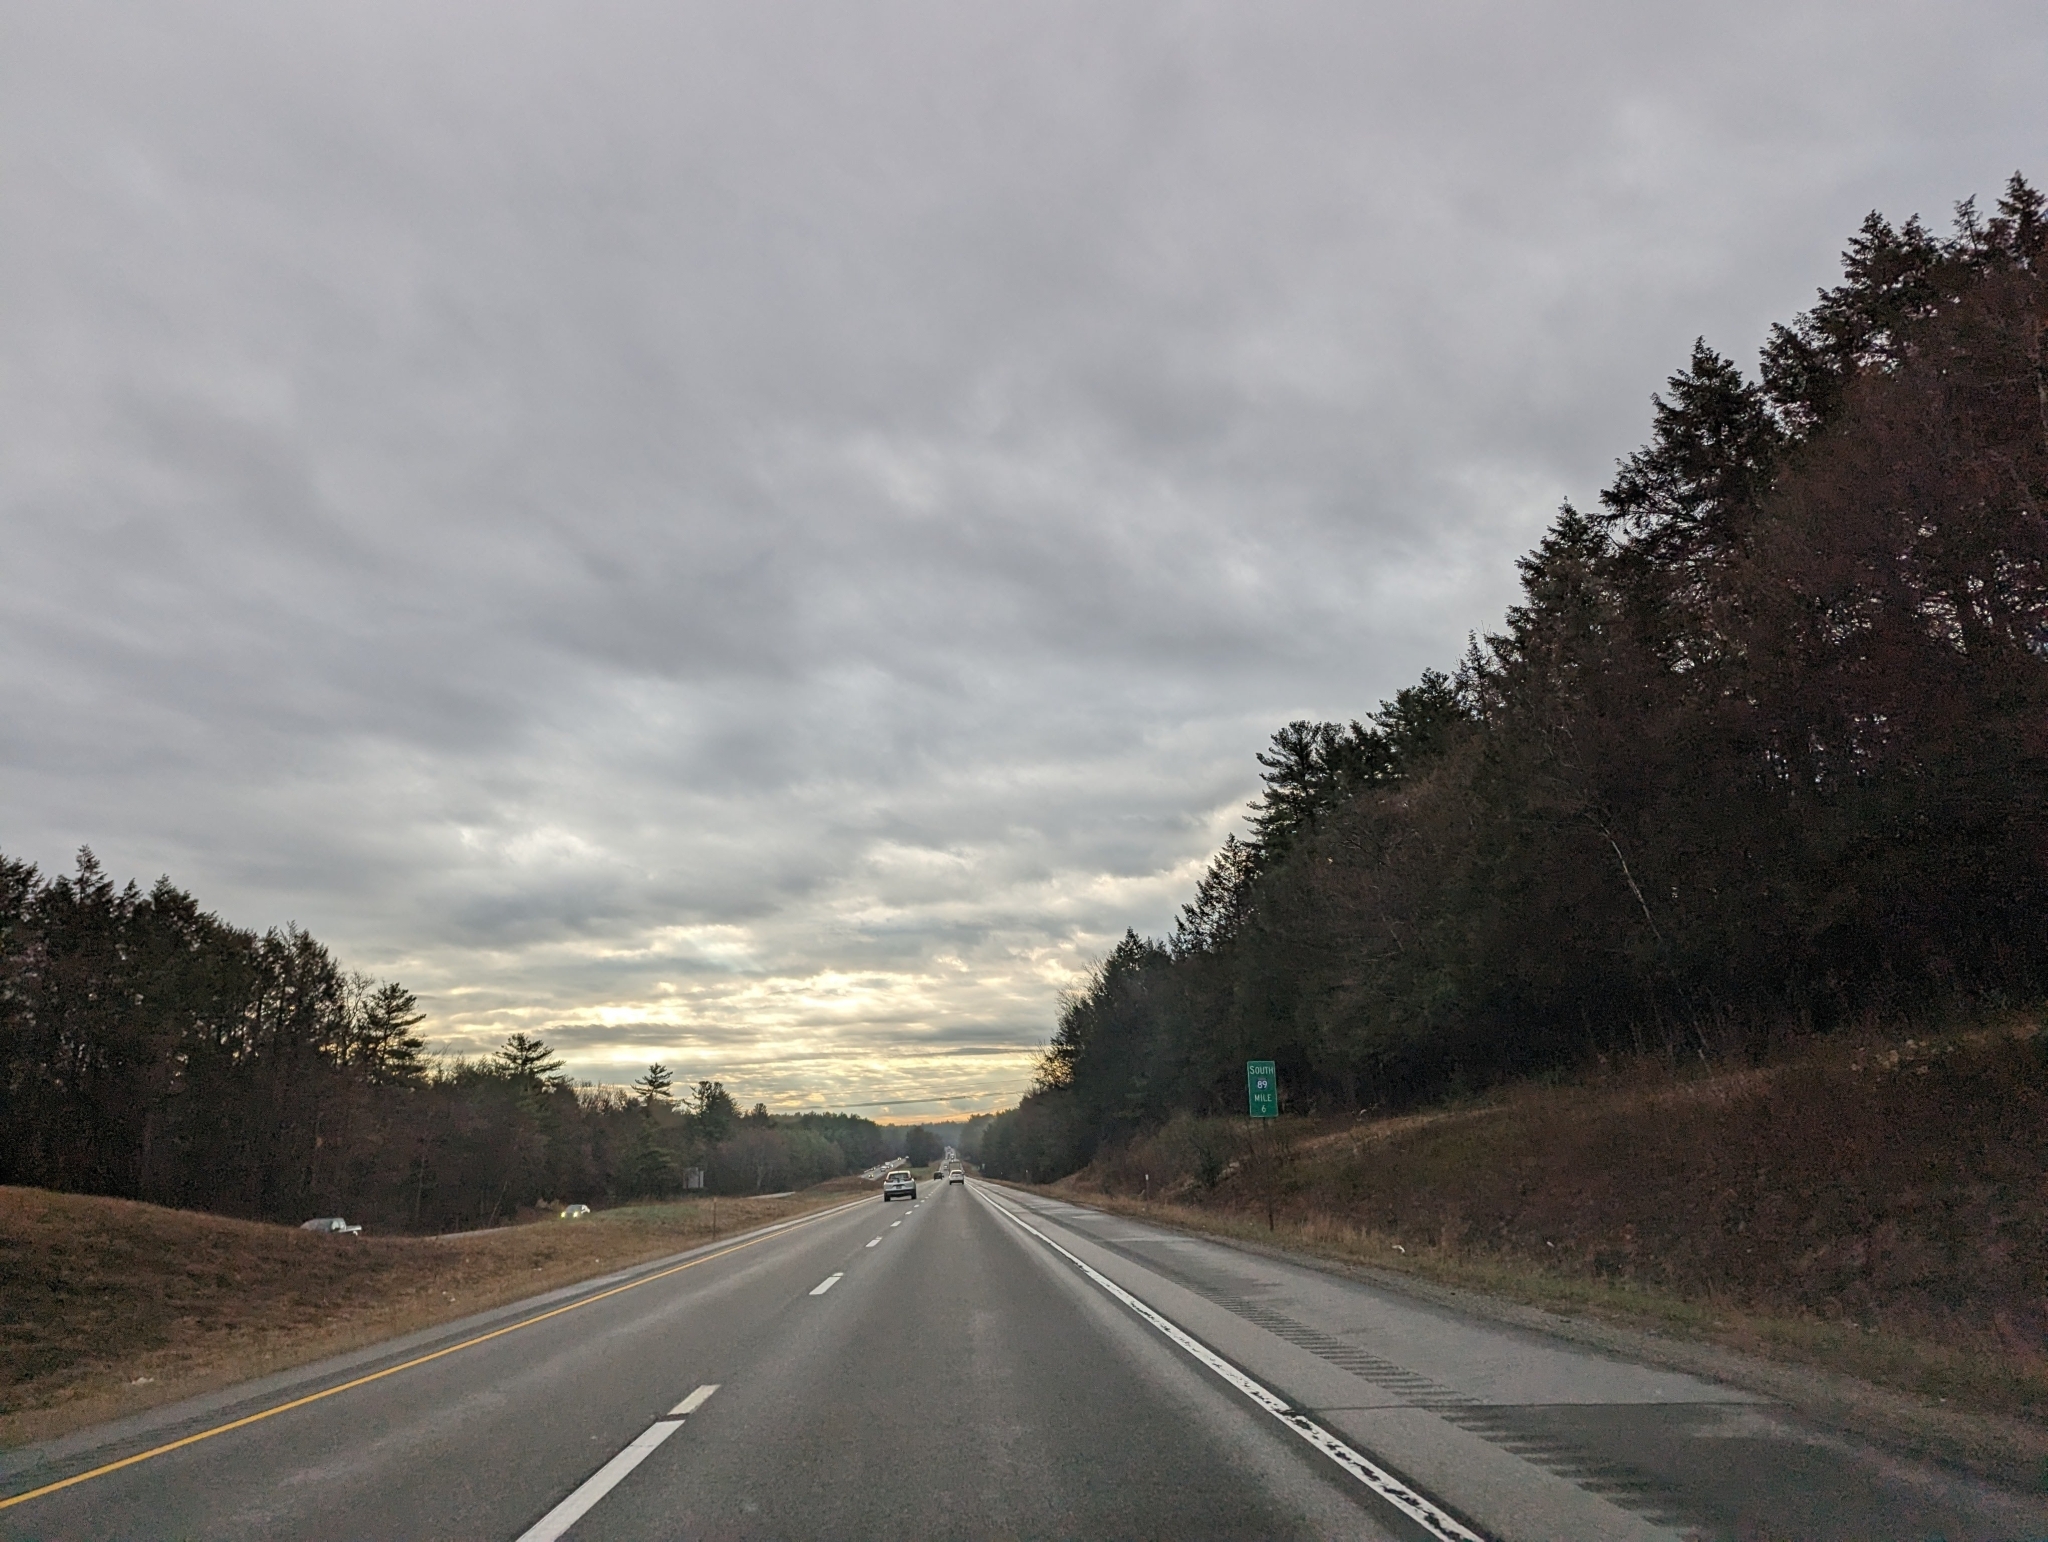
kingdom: Plantae
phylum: Tracheophyta
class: Pinopsida
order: Pinales
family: Pinaceae
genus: Pinus
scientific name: Pinus strobus
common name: Weymouth pine
